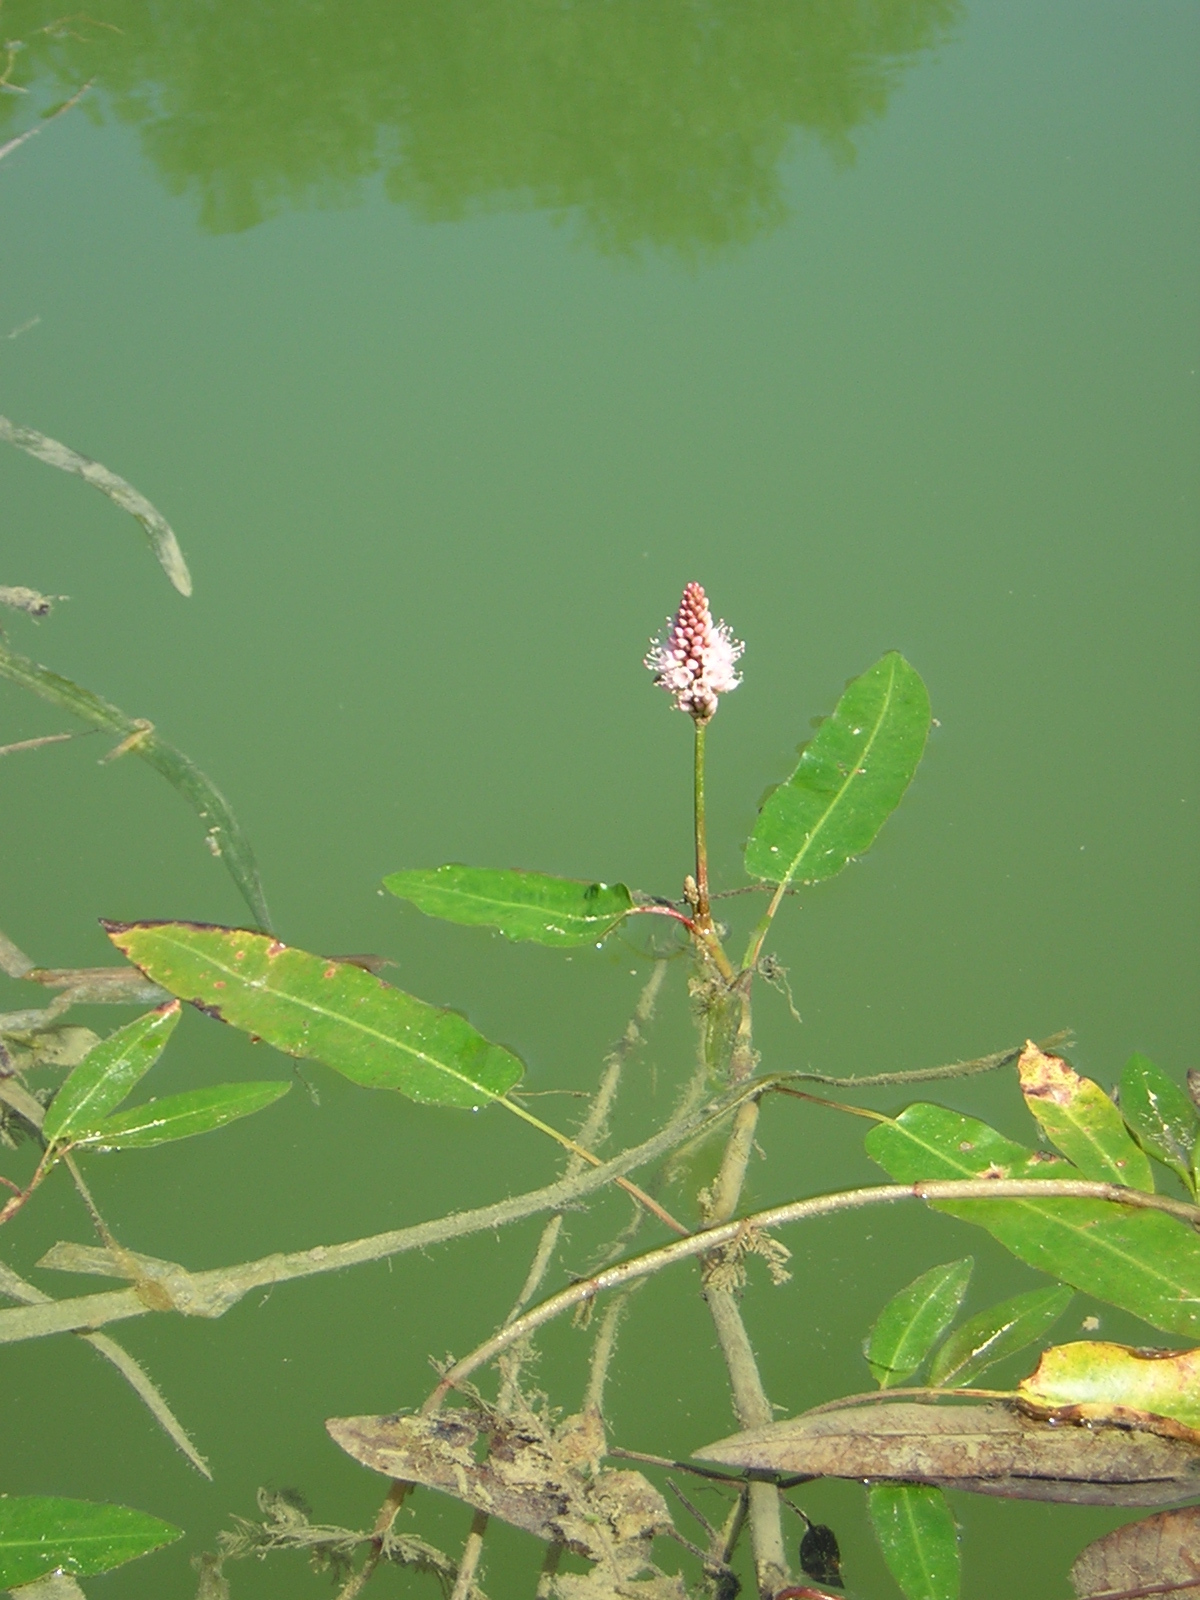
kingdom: Plantae
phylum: Tracheophyta
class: Magnoliopsida
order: Caryophyllales
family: Polygonaceae
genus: Persicaria
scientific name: Persicaria amphibia
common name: Amphibious bistort
